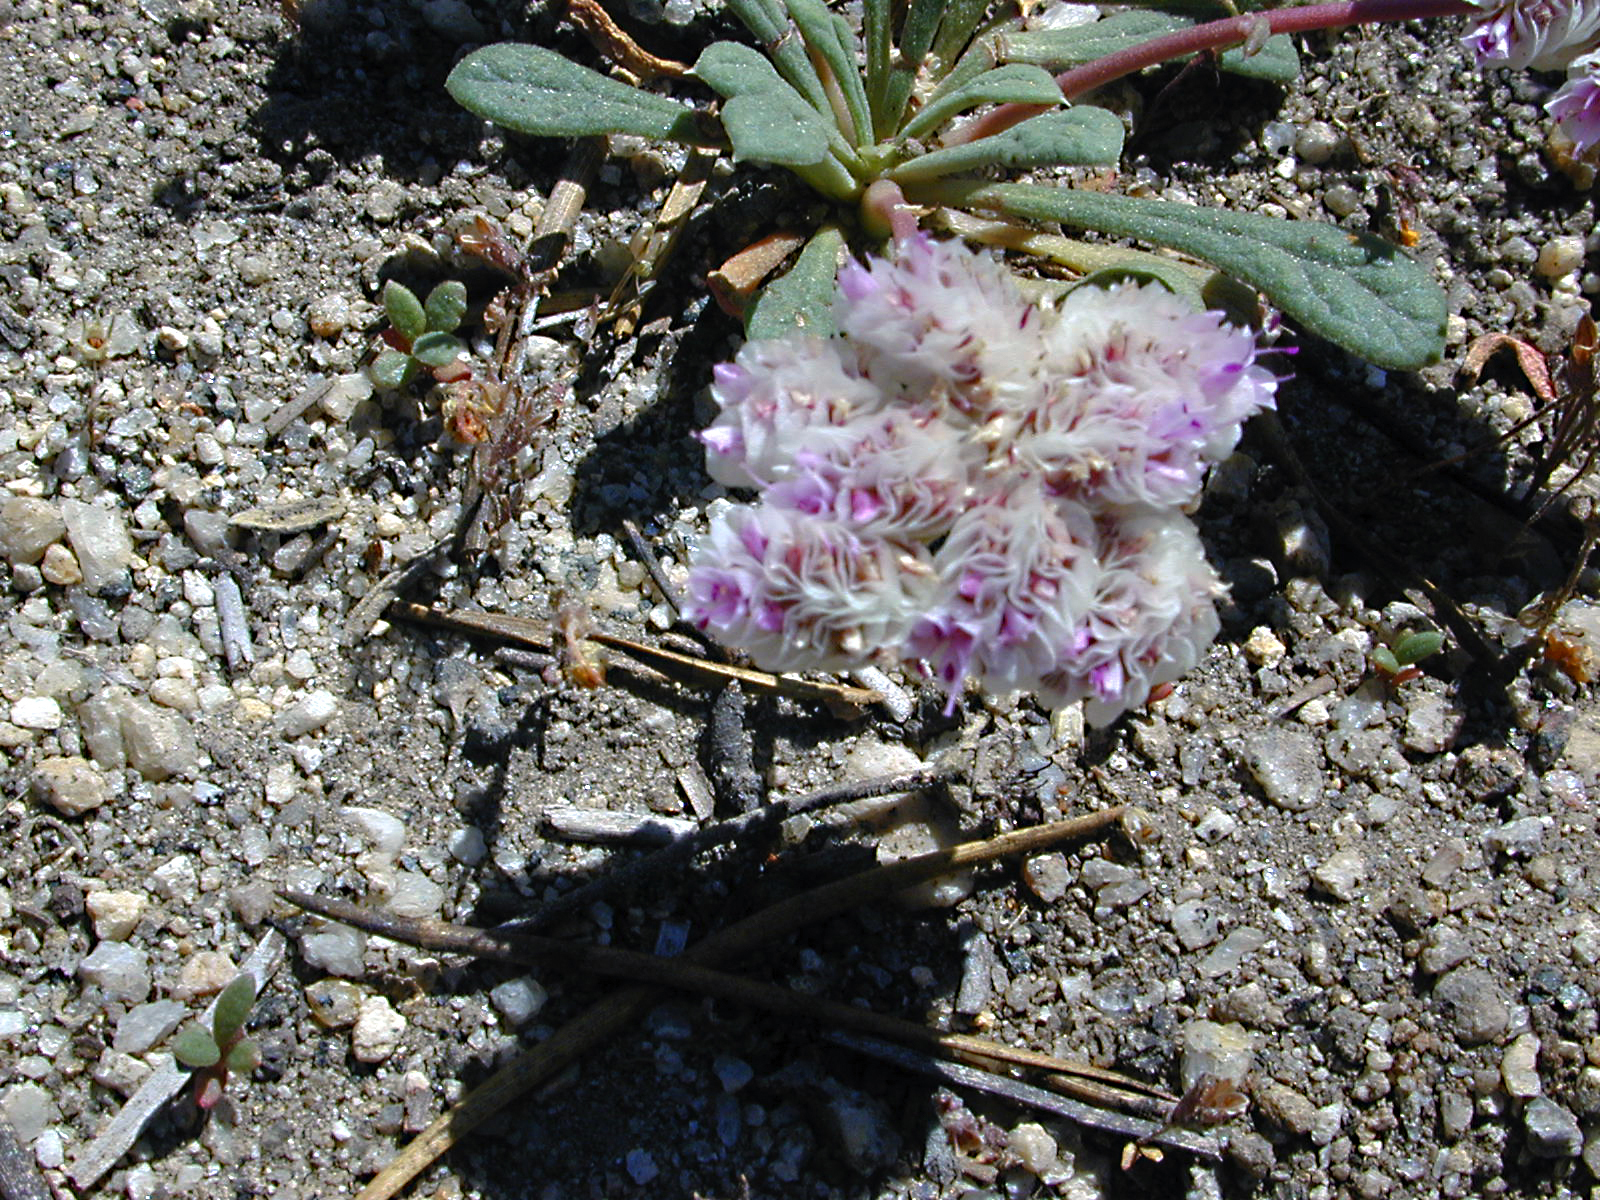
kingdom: Plantae
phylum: Tracheophyta
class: Magnoliopsida
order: Caryophyllales
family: Montiaceae
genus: Calyptridium
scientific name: Calyptridium umbellatum
